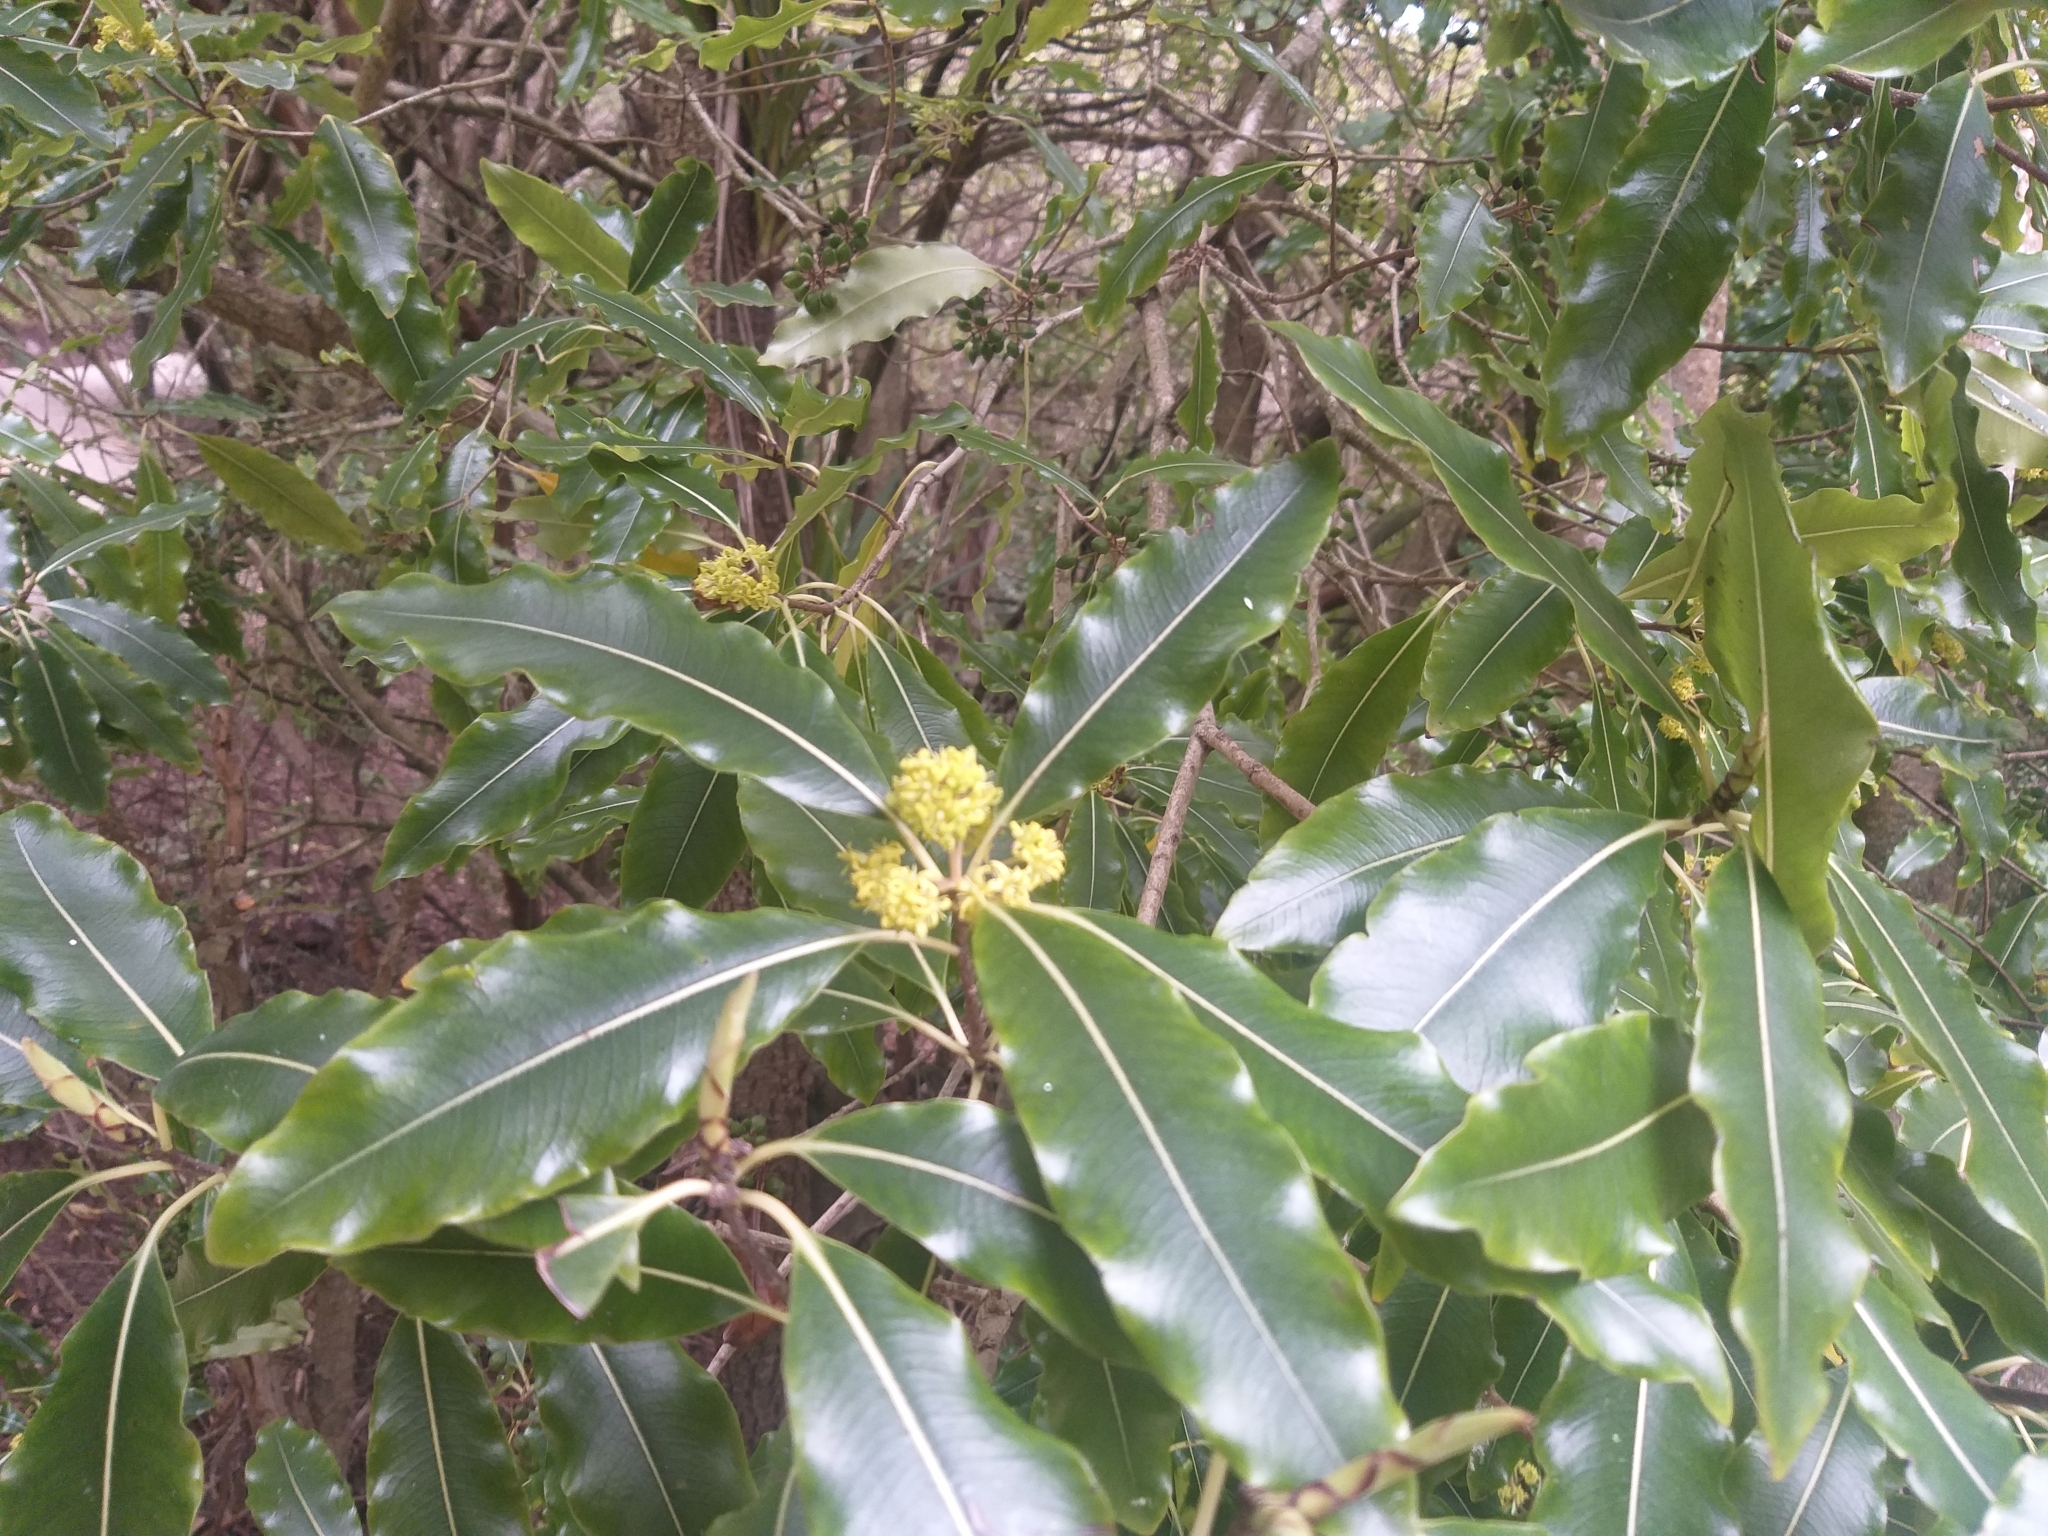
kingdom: Plantae
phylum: Tracheophyta
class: Magnoliopsida
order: Apiales
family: Pittosporaceae
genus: Pittosporum
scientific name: Pittosporum eugenioides
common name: Lemonwood
